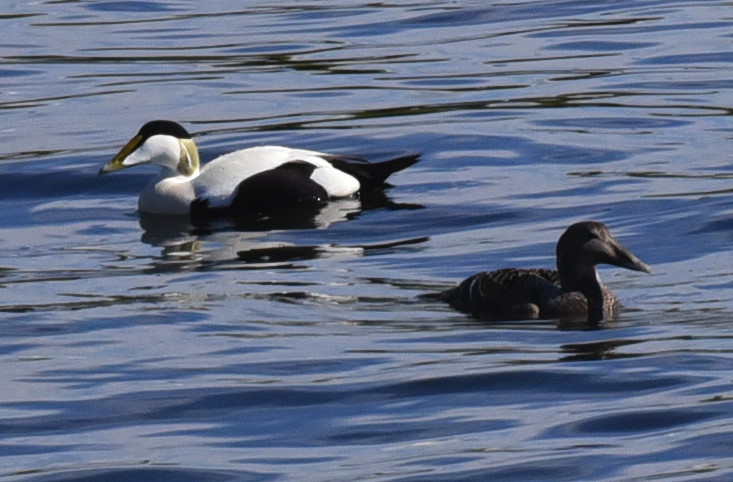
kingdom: Animalia
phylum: Chordata
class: Aves
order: Anseriformes
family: Anatidae
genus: Somateria
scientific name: Somateria mollissima
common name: Common eider
